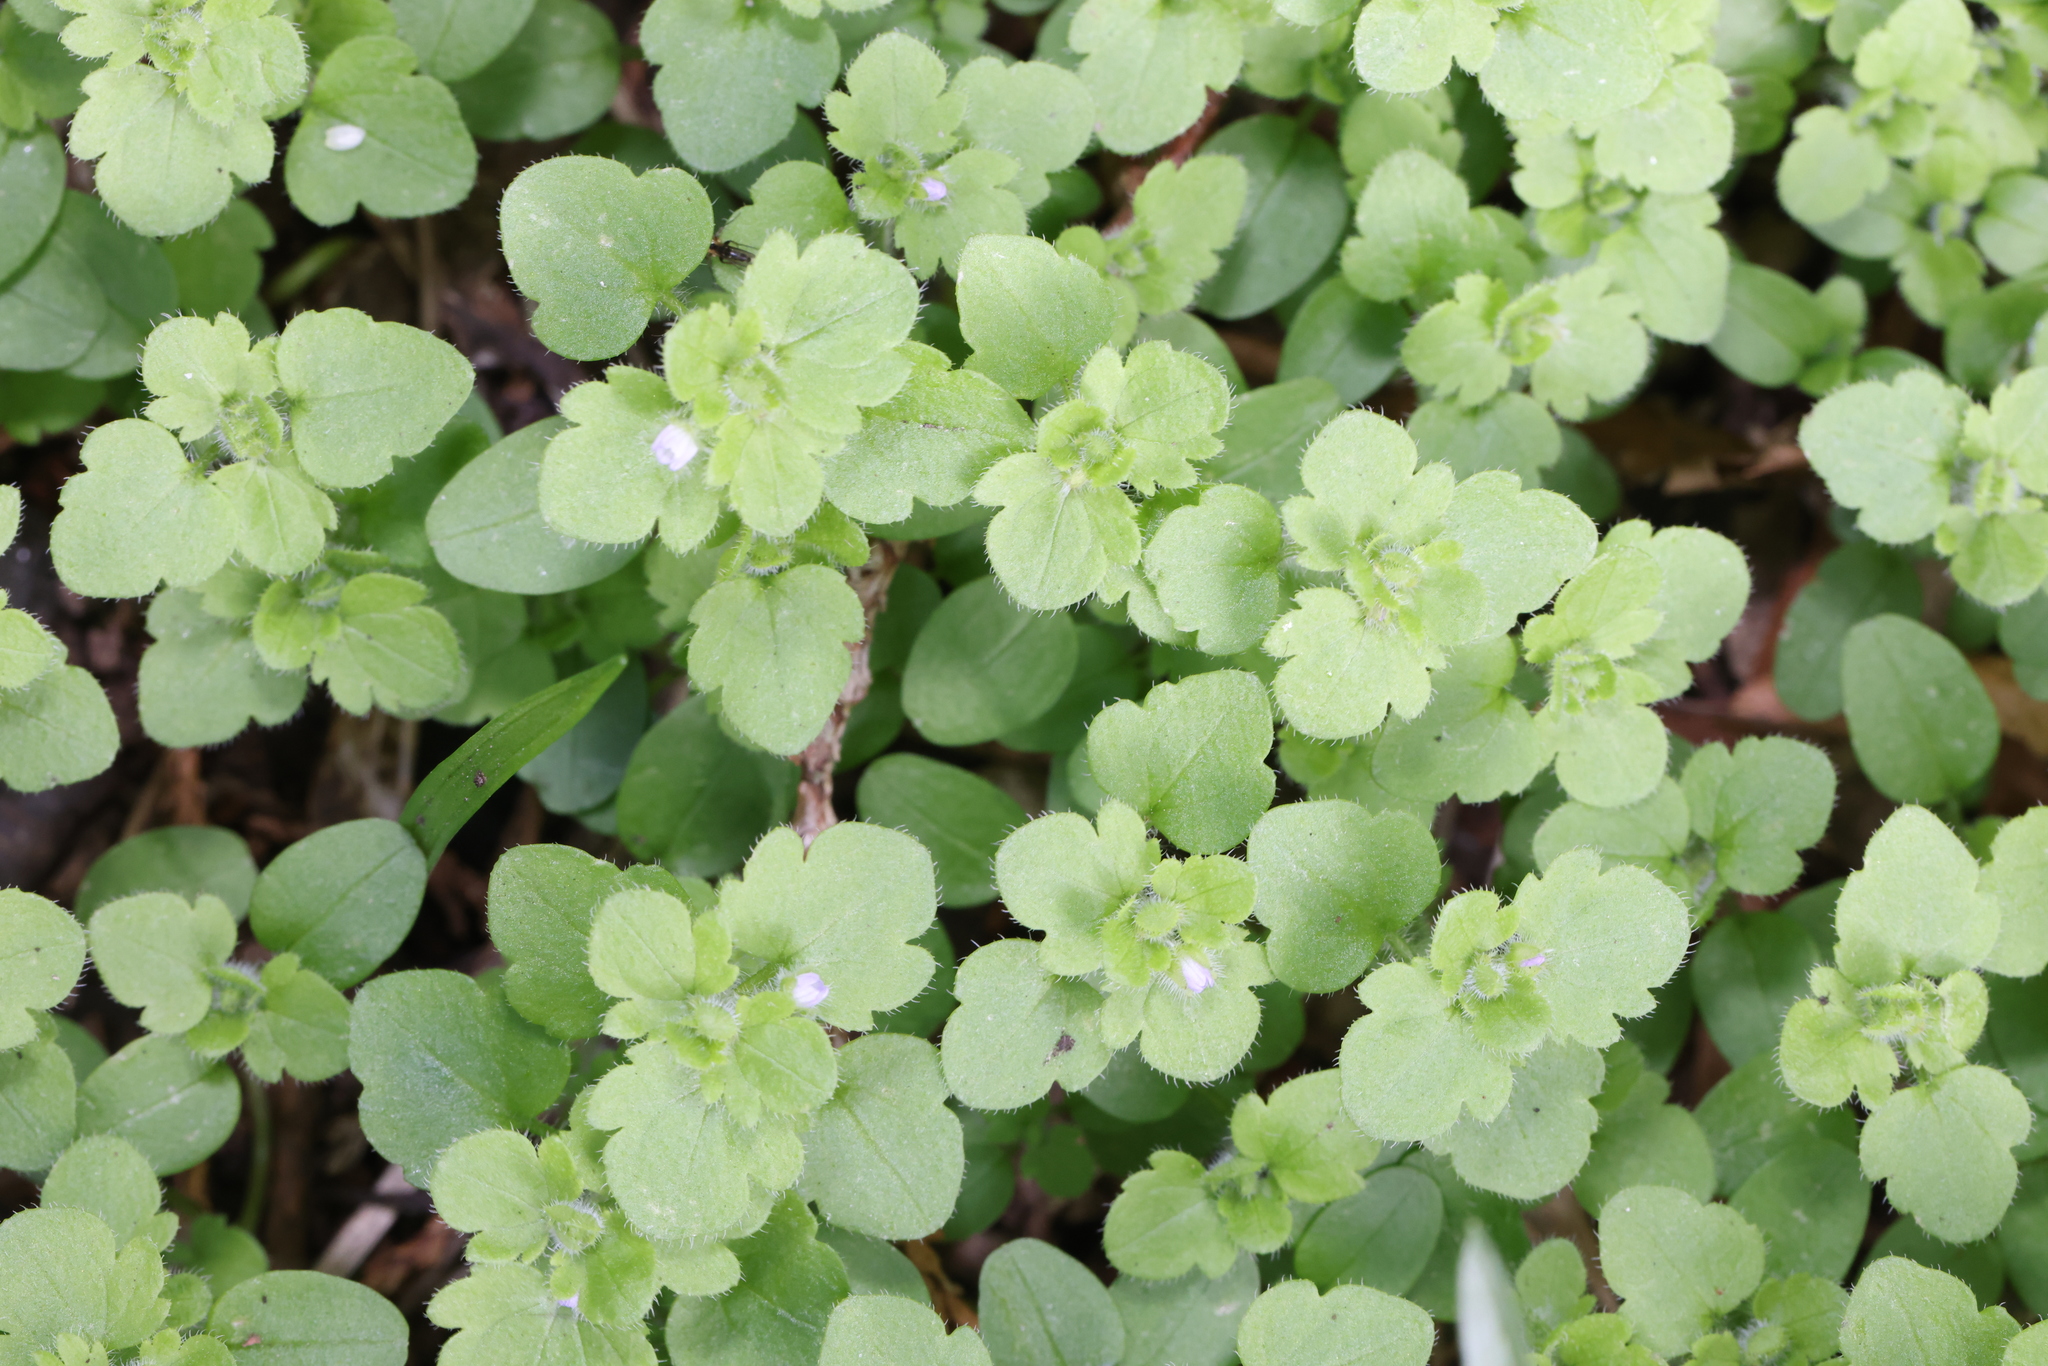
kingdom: Plantae
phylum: Tracheophyta
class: Magnoliopsida
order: Lamiales
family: Plantaginaceae
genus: Veronica
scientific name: Veronica sublobata
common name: False ivy-leaved speedwell
